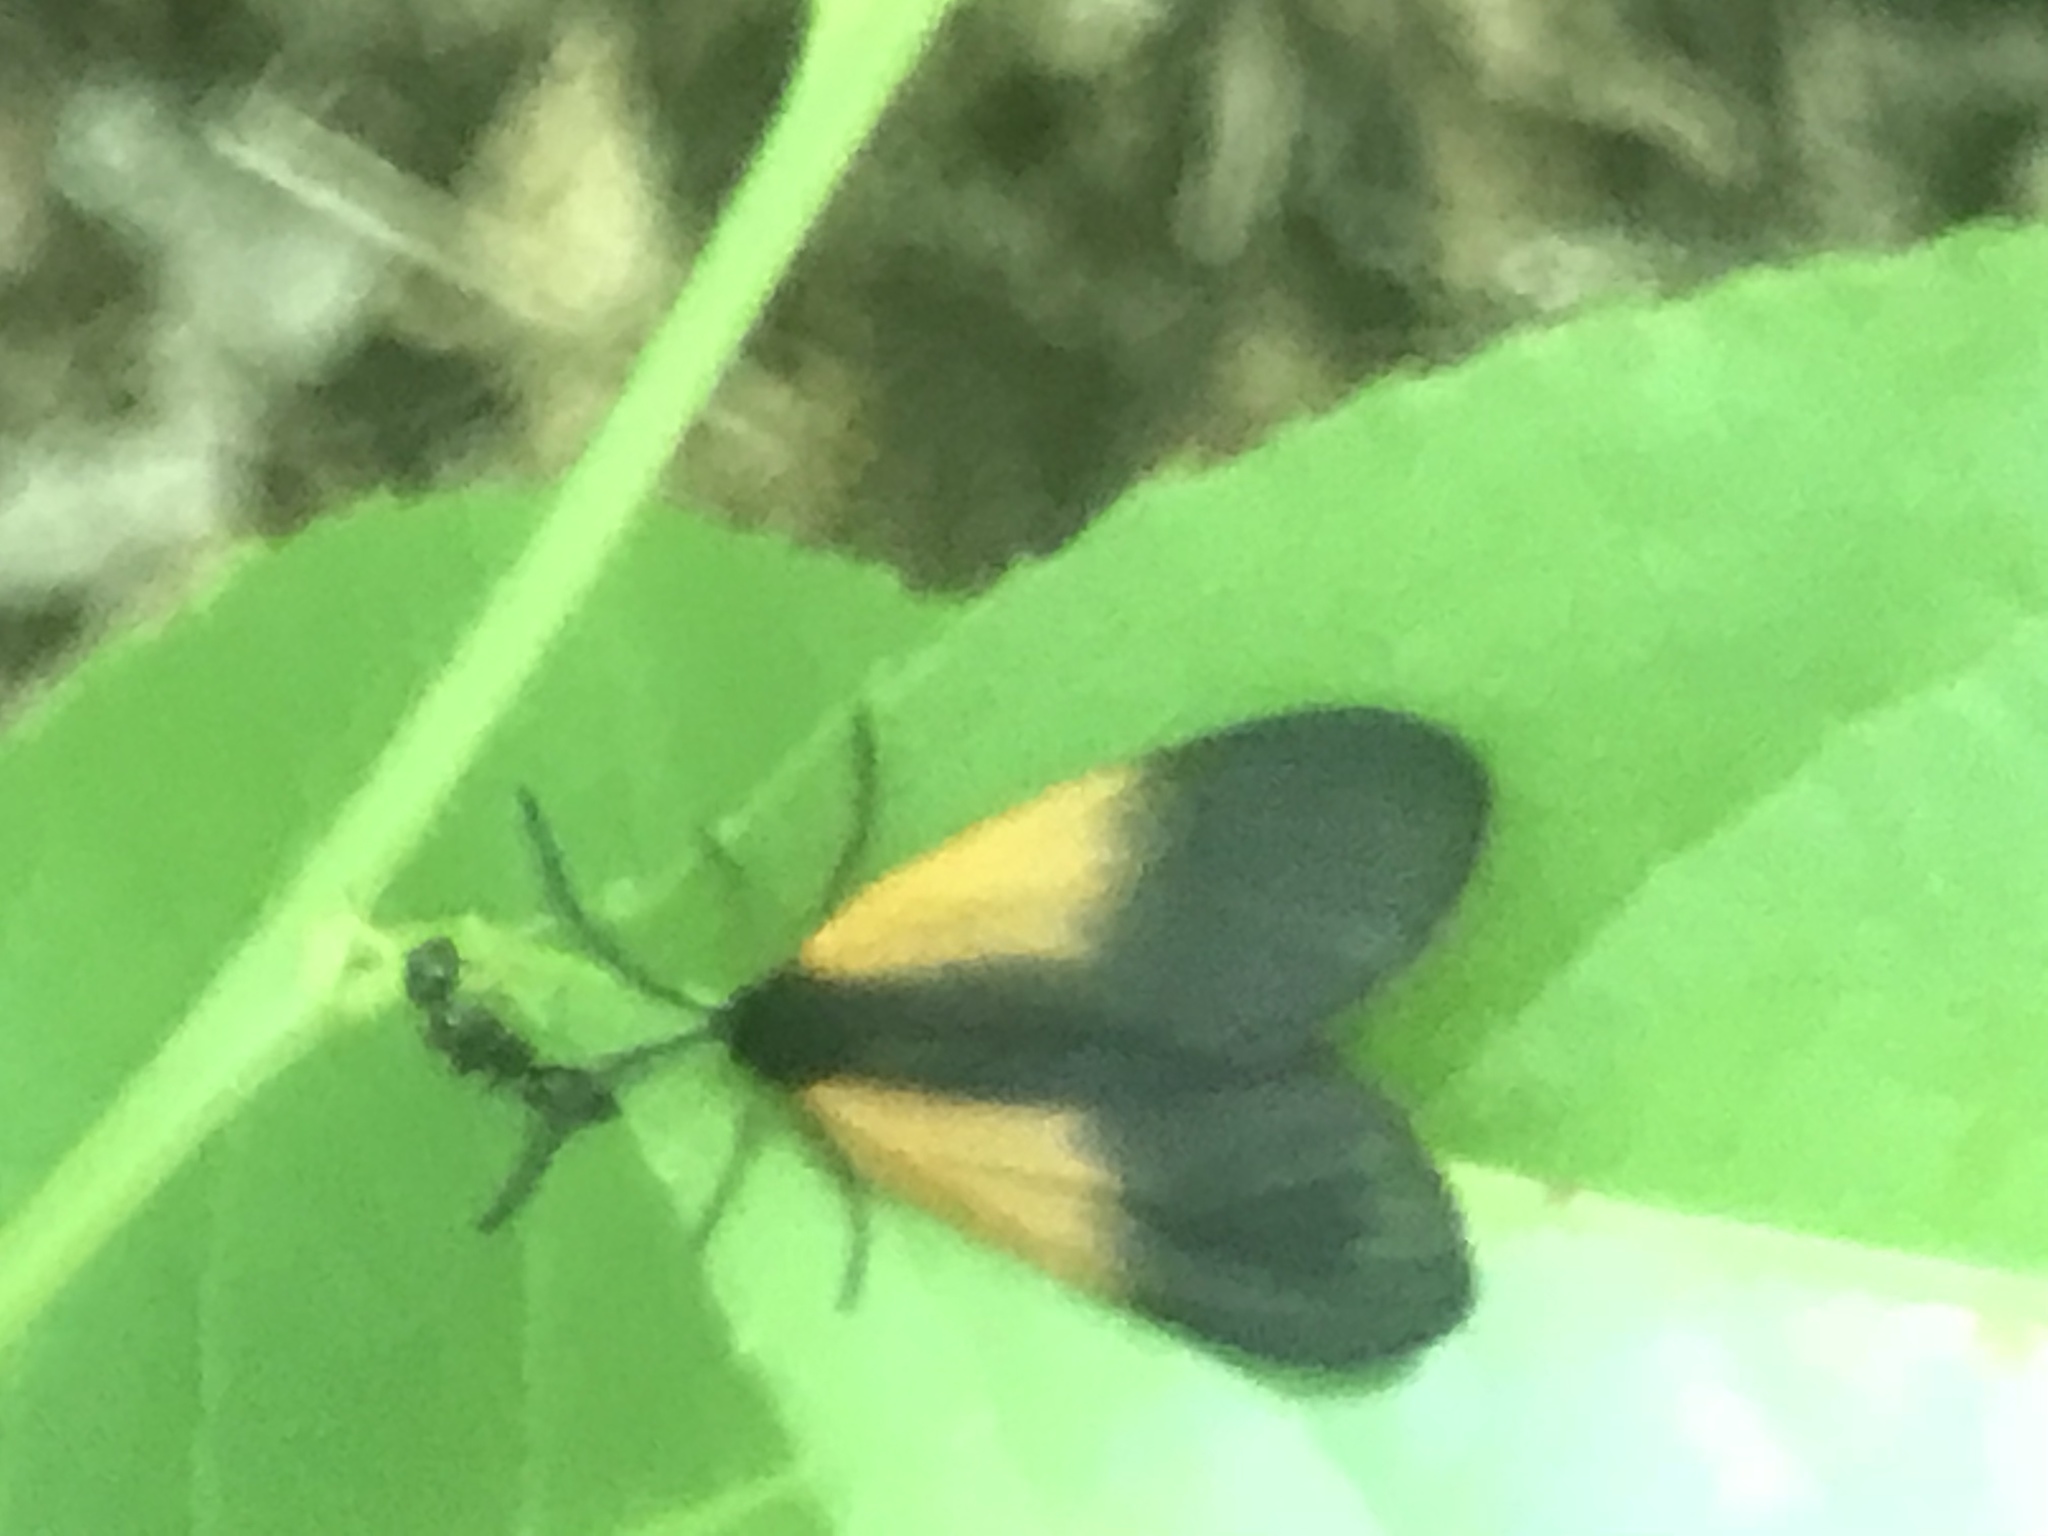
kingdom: Animalia
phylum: Arthropoda
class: Insecta
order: Lepidoptera
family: Zygaenidae
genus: Malthaca
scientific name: Malthaca dimidiata
